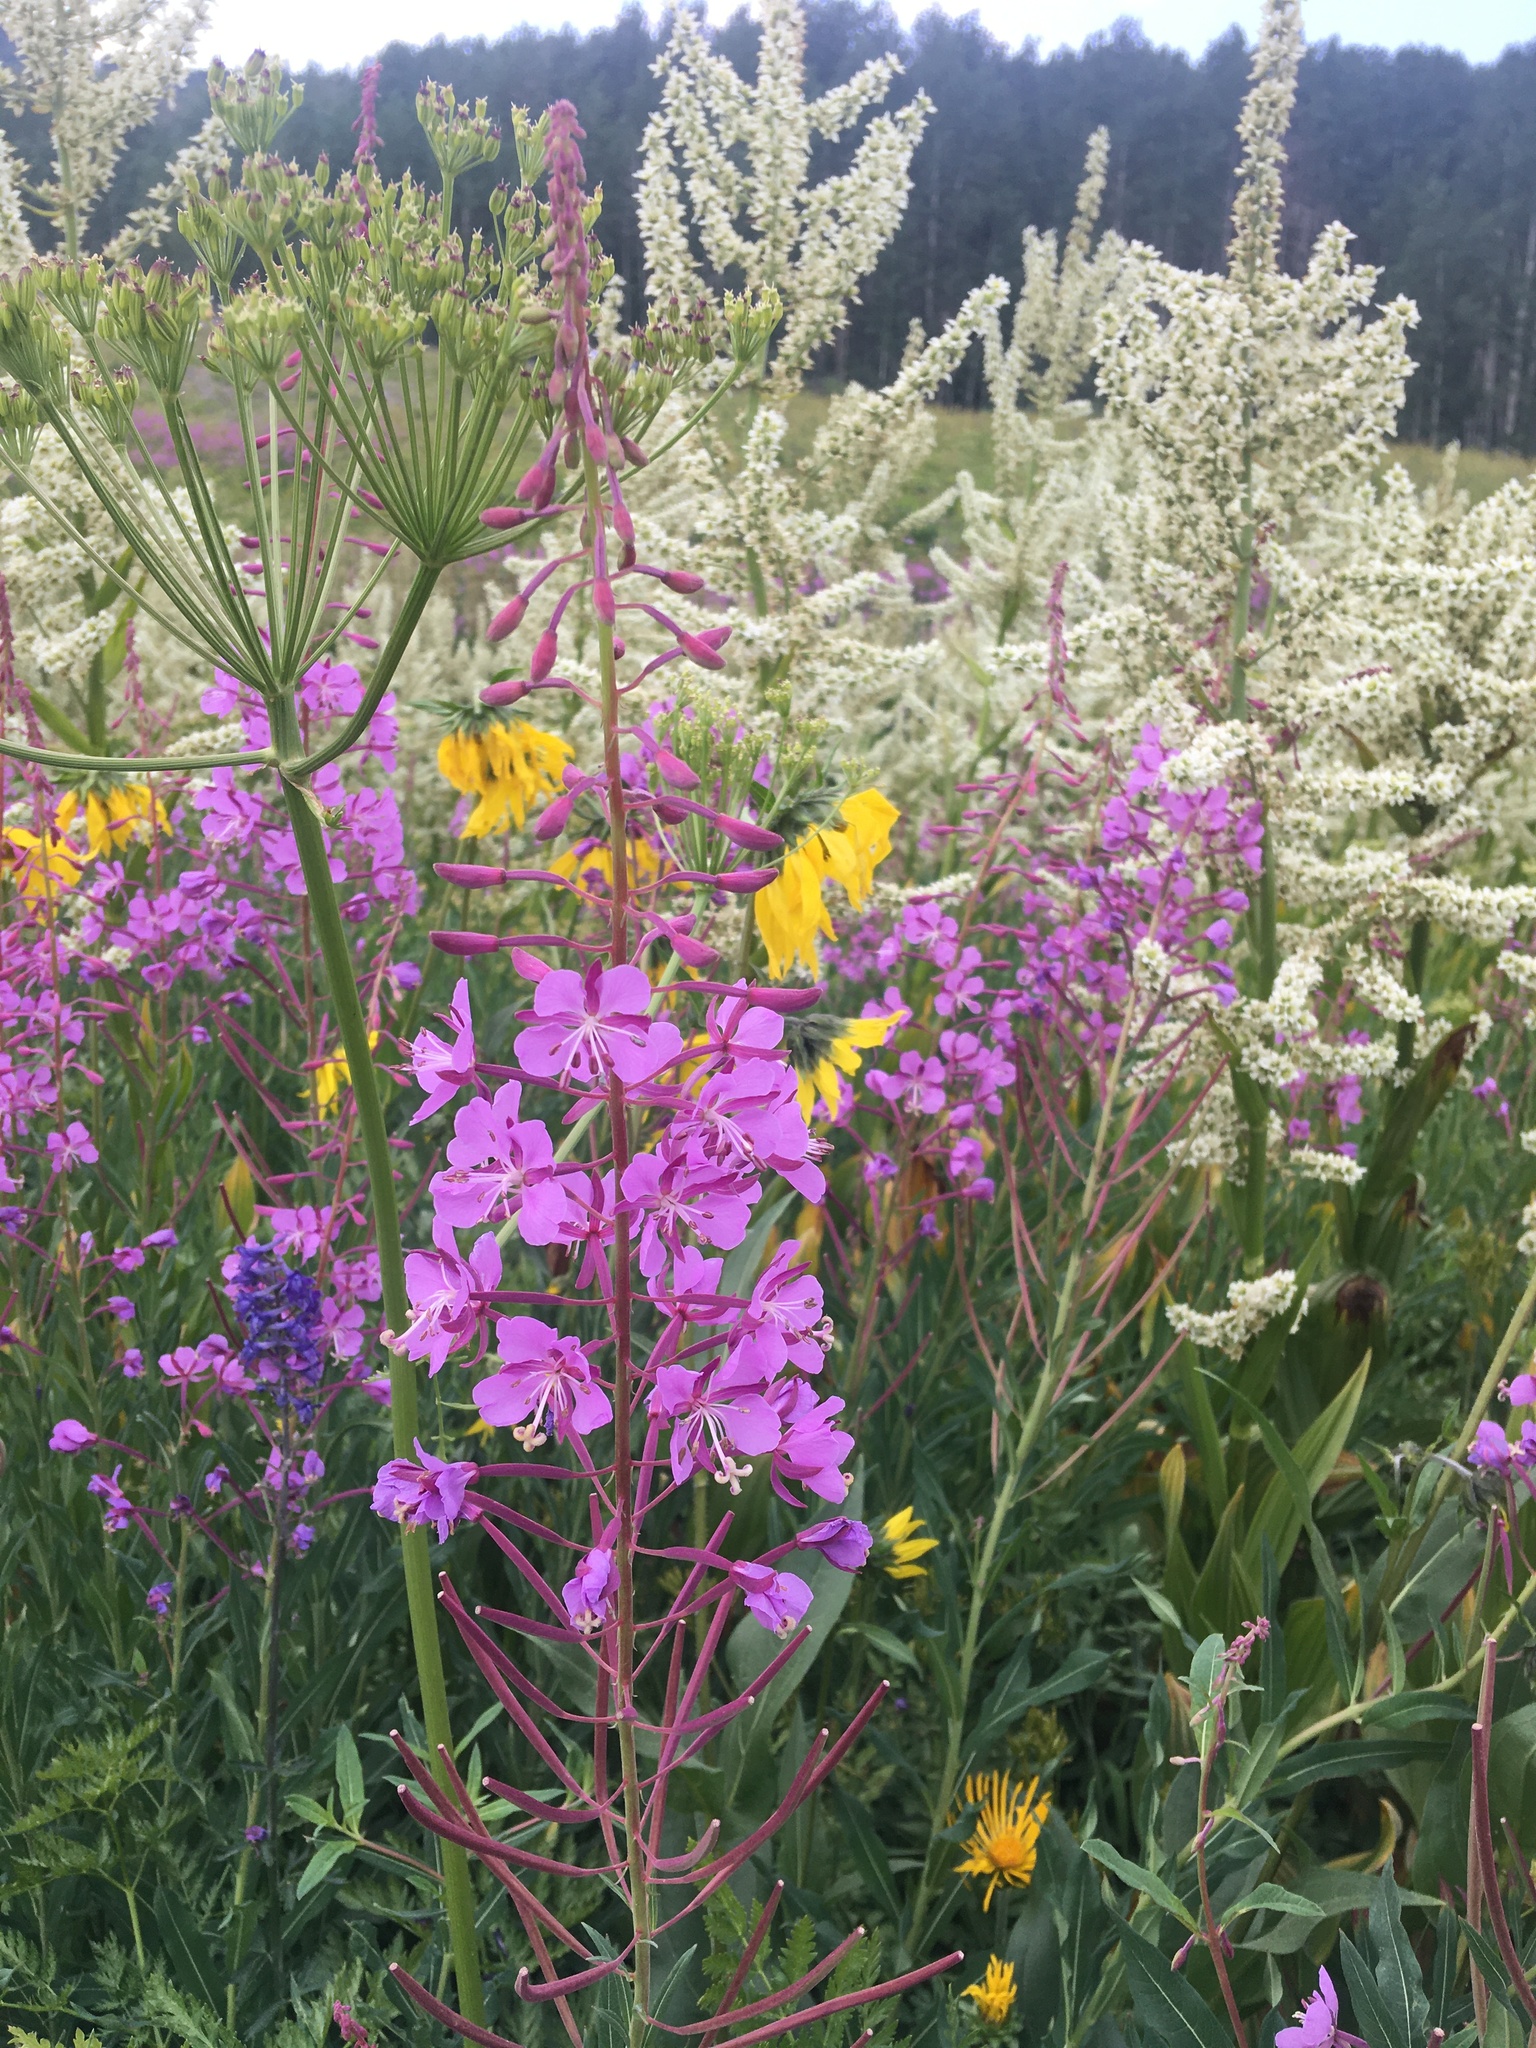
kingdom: Plantae
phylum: Tracheophyta
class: Magnoliopsida
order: Myrtales
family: Onagraceae
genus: Chamaenerion
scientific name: Chamaenerion angustifolium
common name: Fireweed
